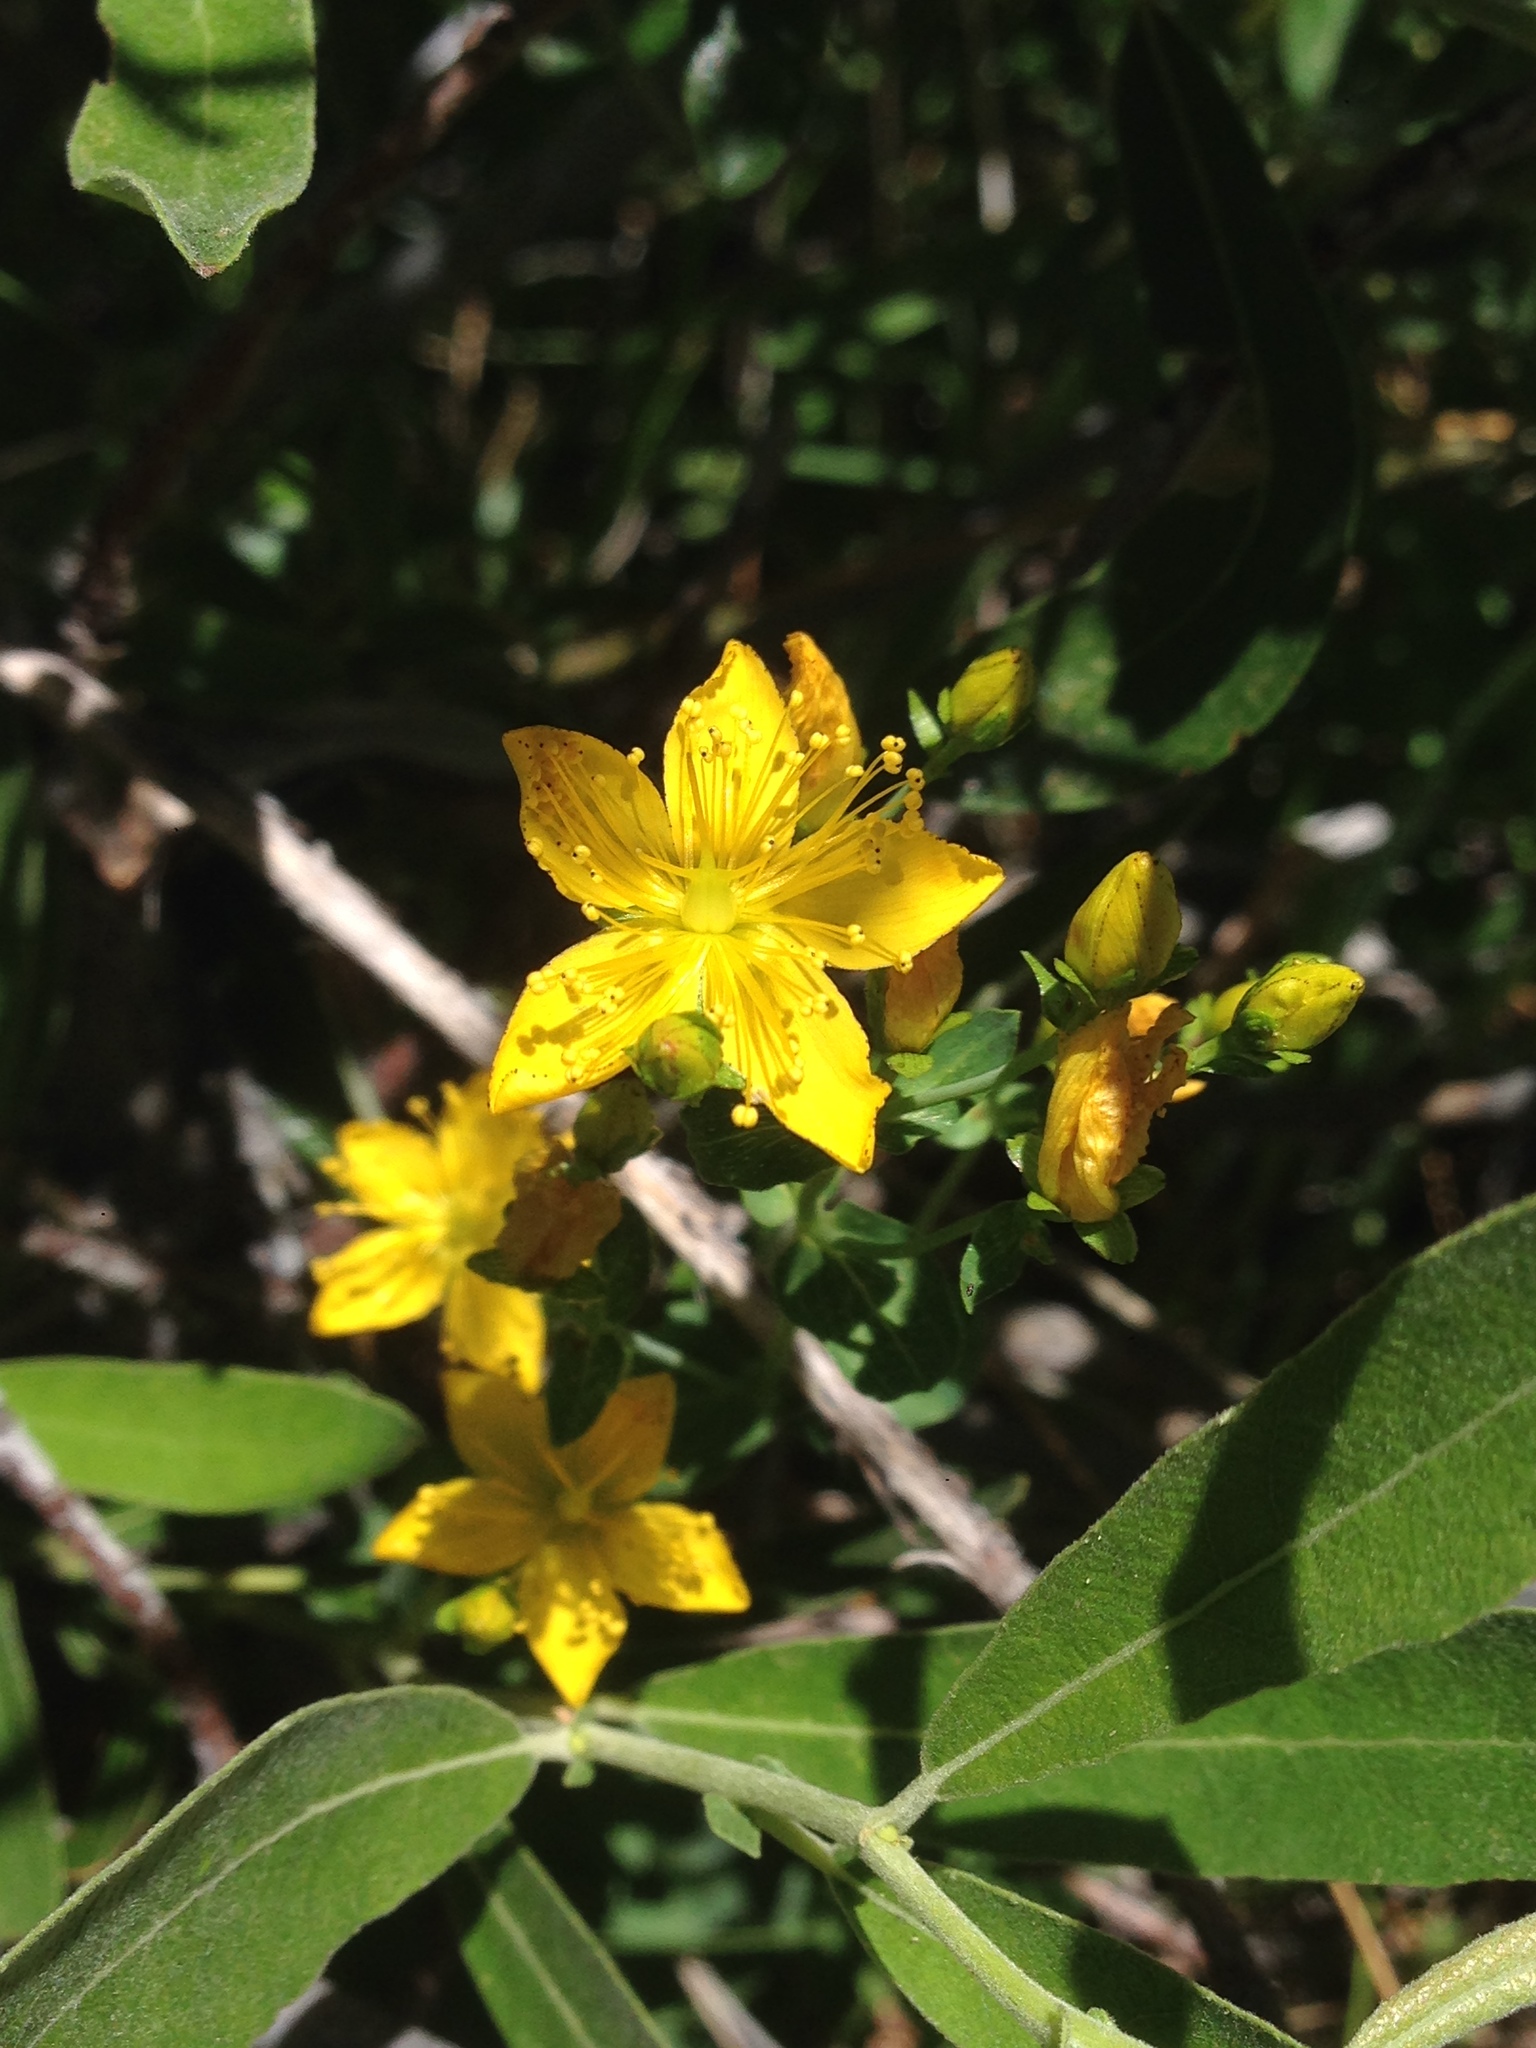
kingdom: Plantae
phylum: Tracheophyta
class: Magnoliopsida
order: Malpighiales
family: Hypericaceae
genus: Hypericum
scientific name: Hypericum scouleri
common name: Scouler's st. john's-wort
